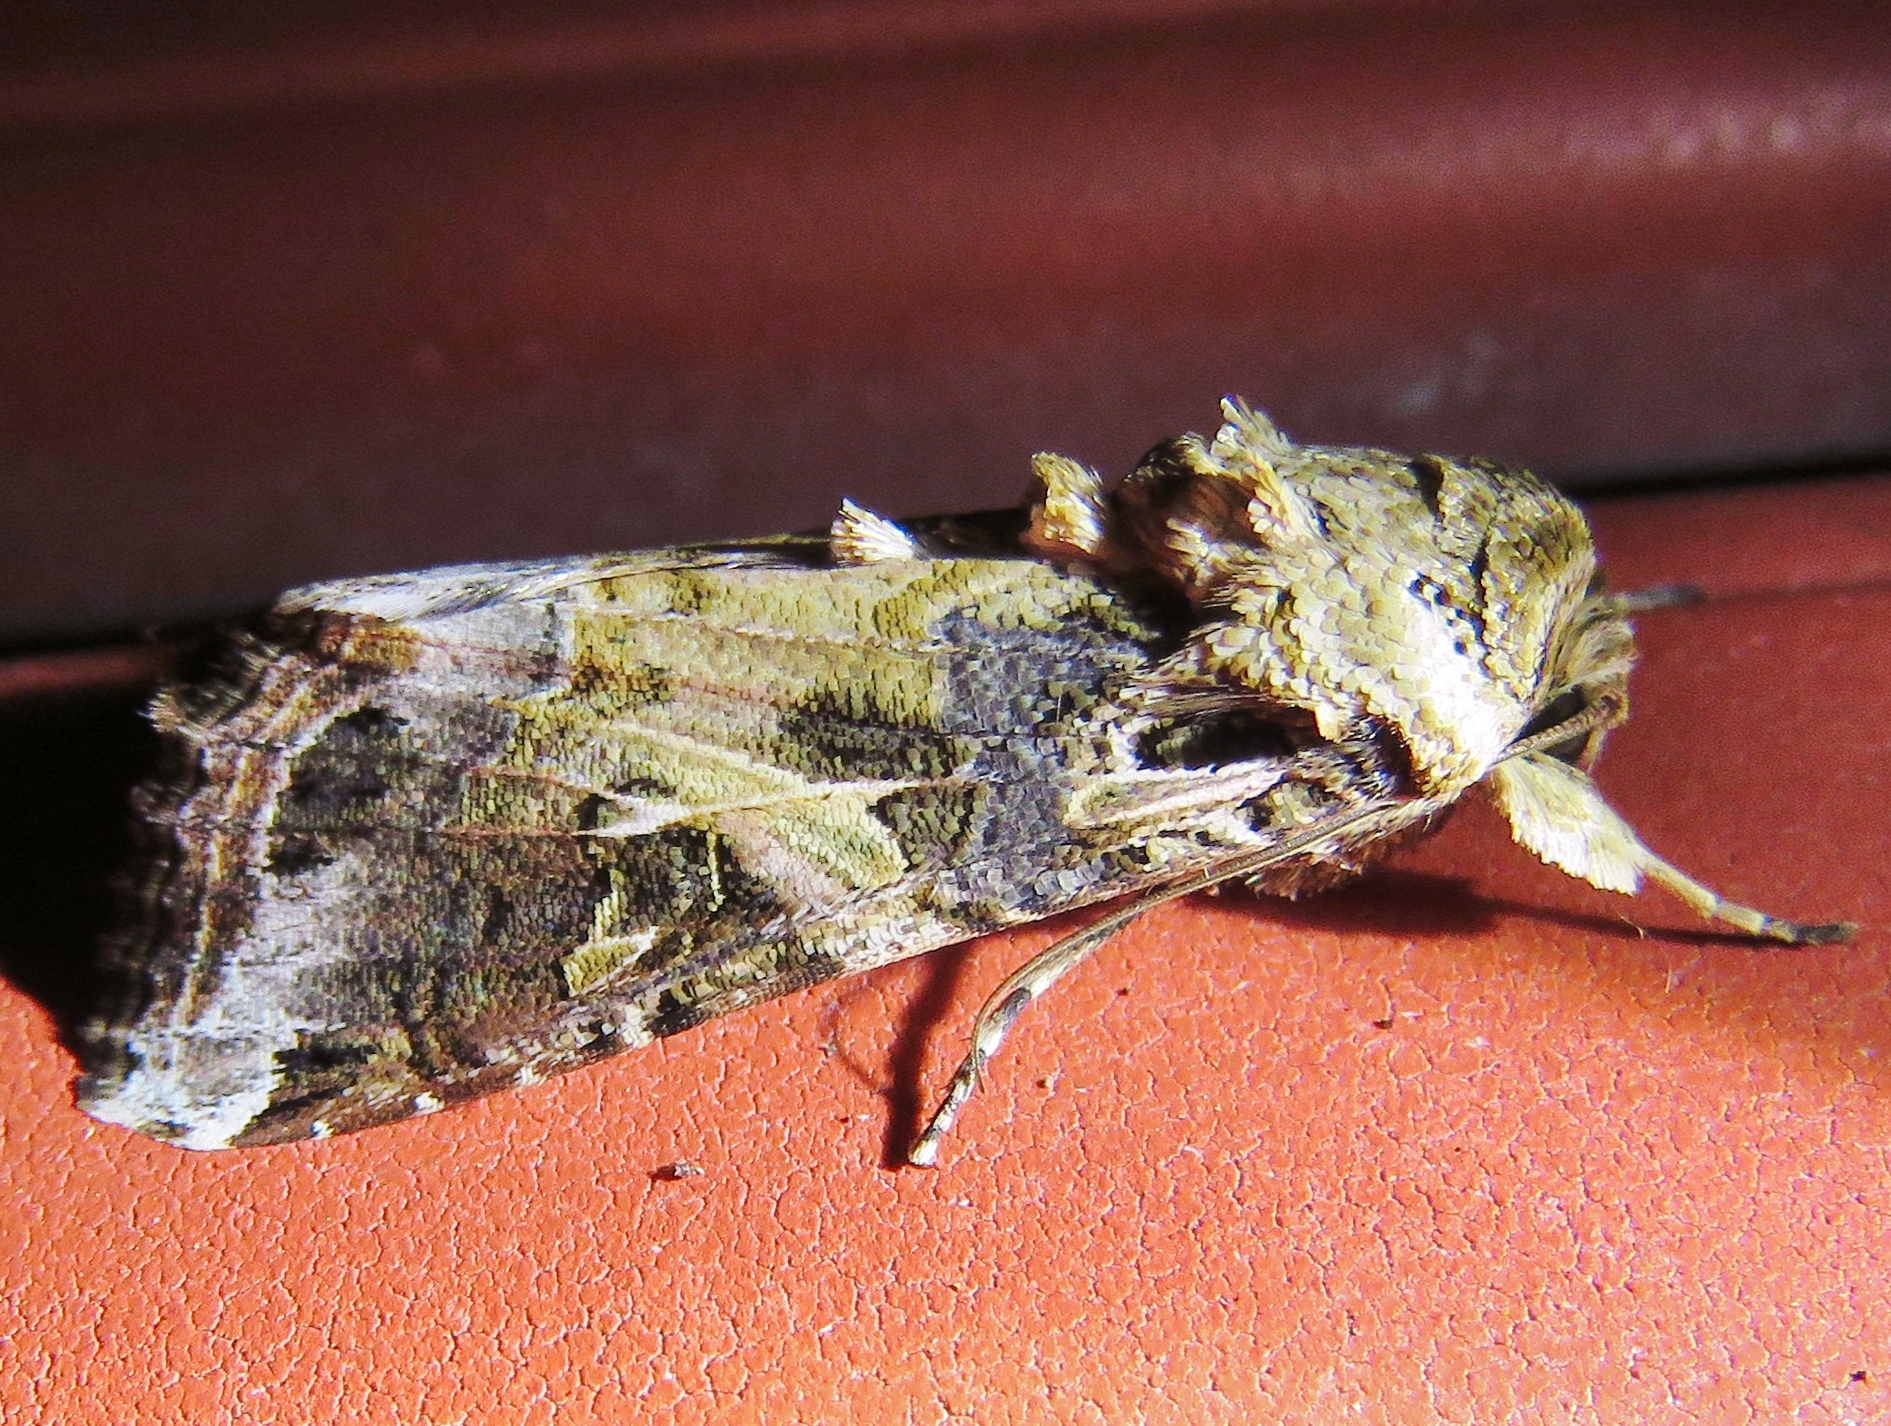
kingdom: Animalia
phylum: Arthropoda
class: Insecta
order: Lepidoptera
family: Noctuidae
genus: Spodoptera
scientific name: Spodoptera ornithogalli
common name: Yellow-striped armyworm
